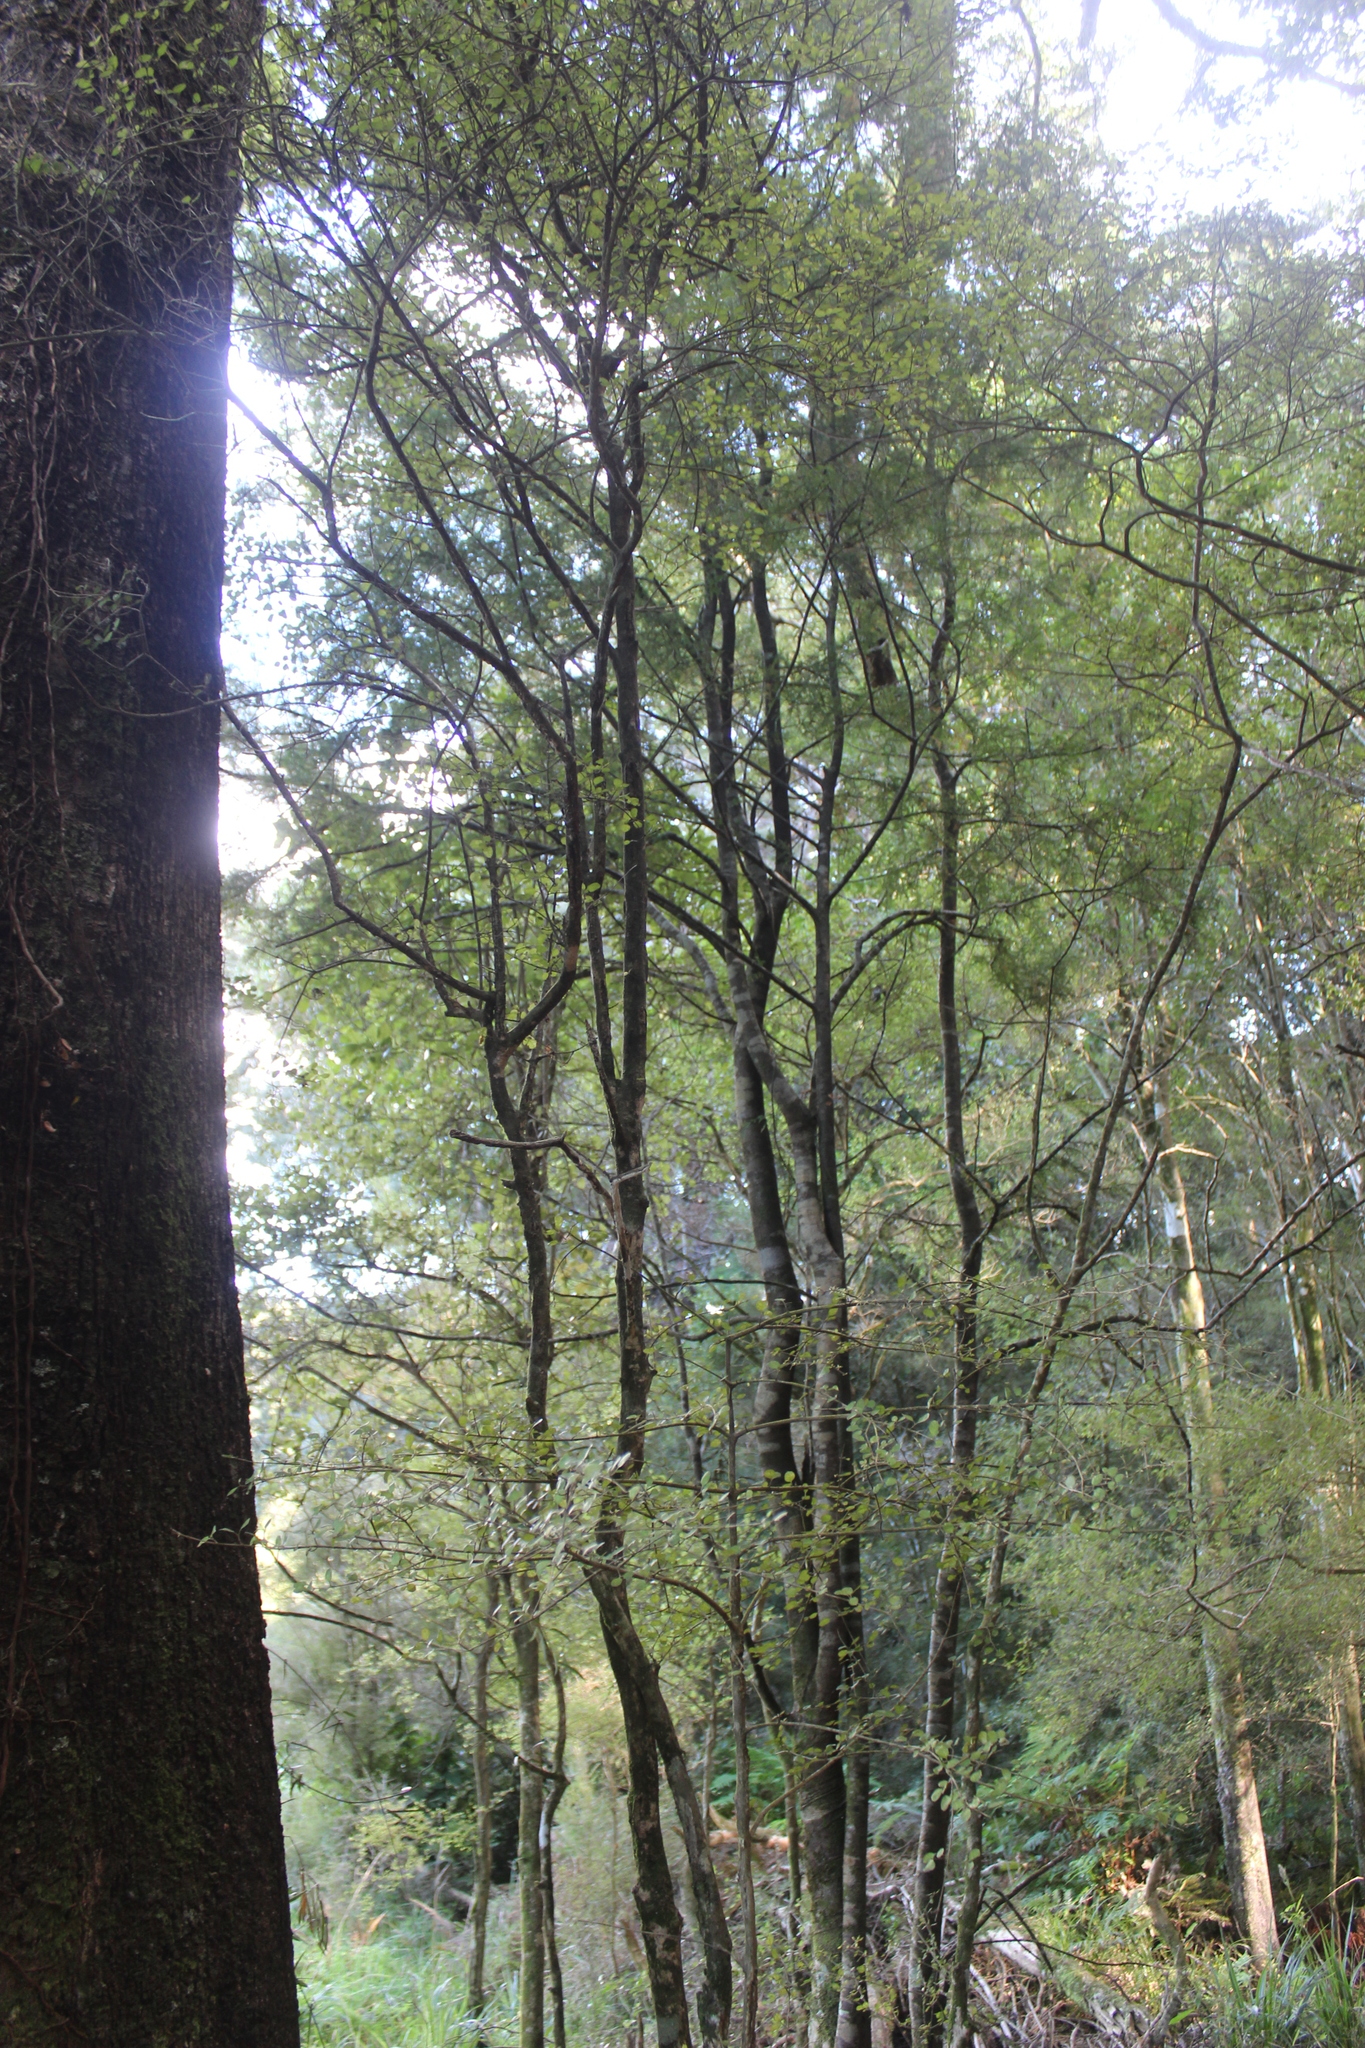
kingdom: Plantae
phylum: Tracheophyta
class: Magnoliopsida
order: Gentianales
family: Rubiaceae
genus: Coprosma
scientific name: Coprosma rotundifolia
